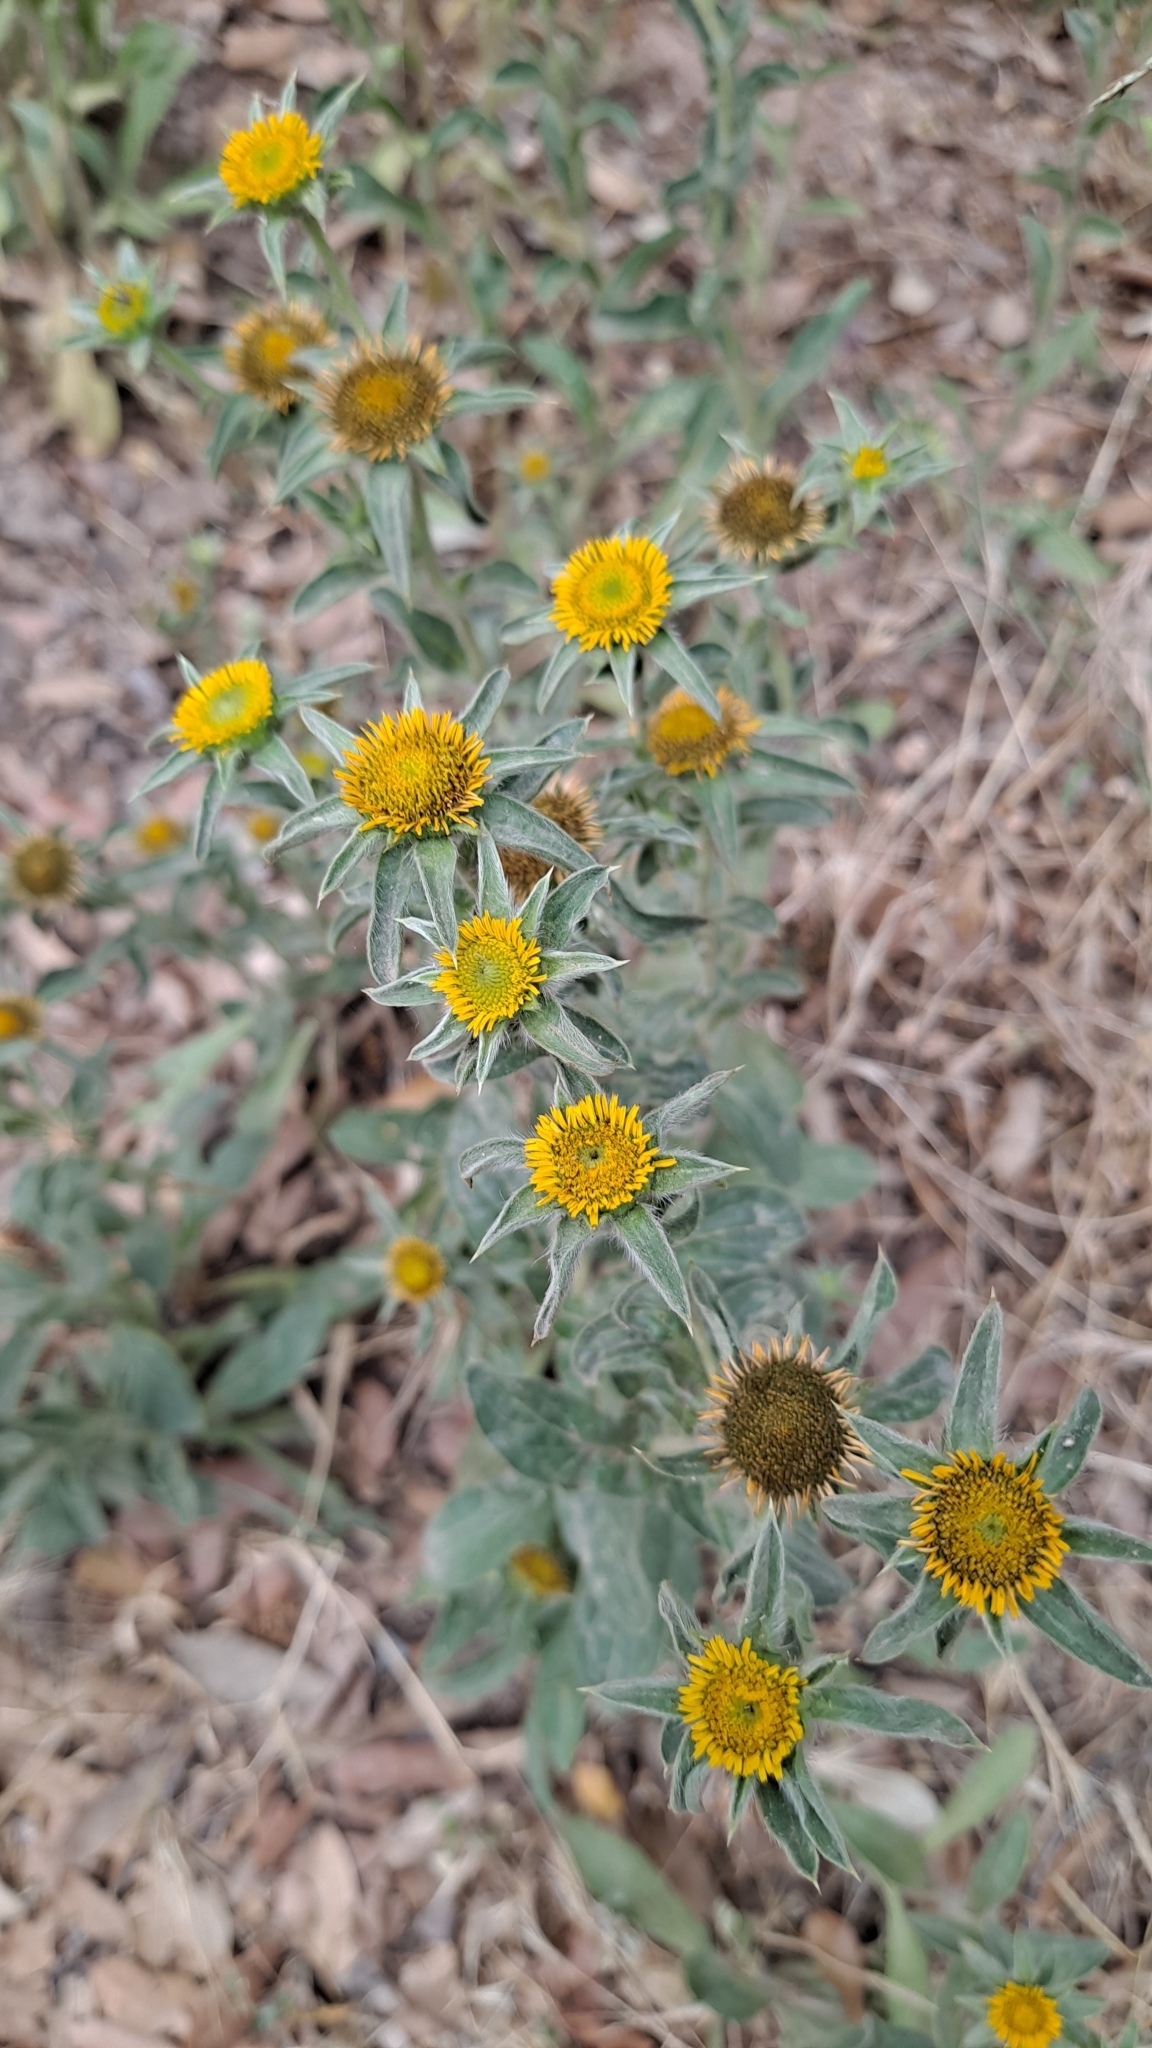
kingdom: Plantae
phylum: Tracheophyta
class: Magnoliopsida
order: Asterales
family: Asteraceae
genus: Pallenis
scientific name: Pallenis spinosa
